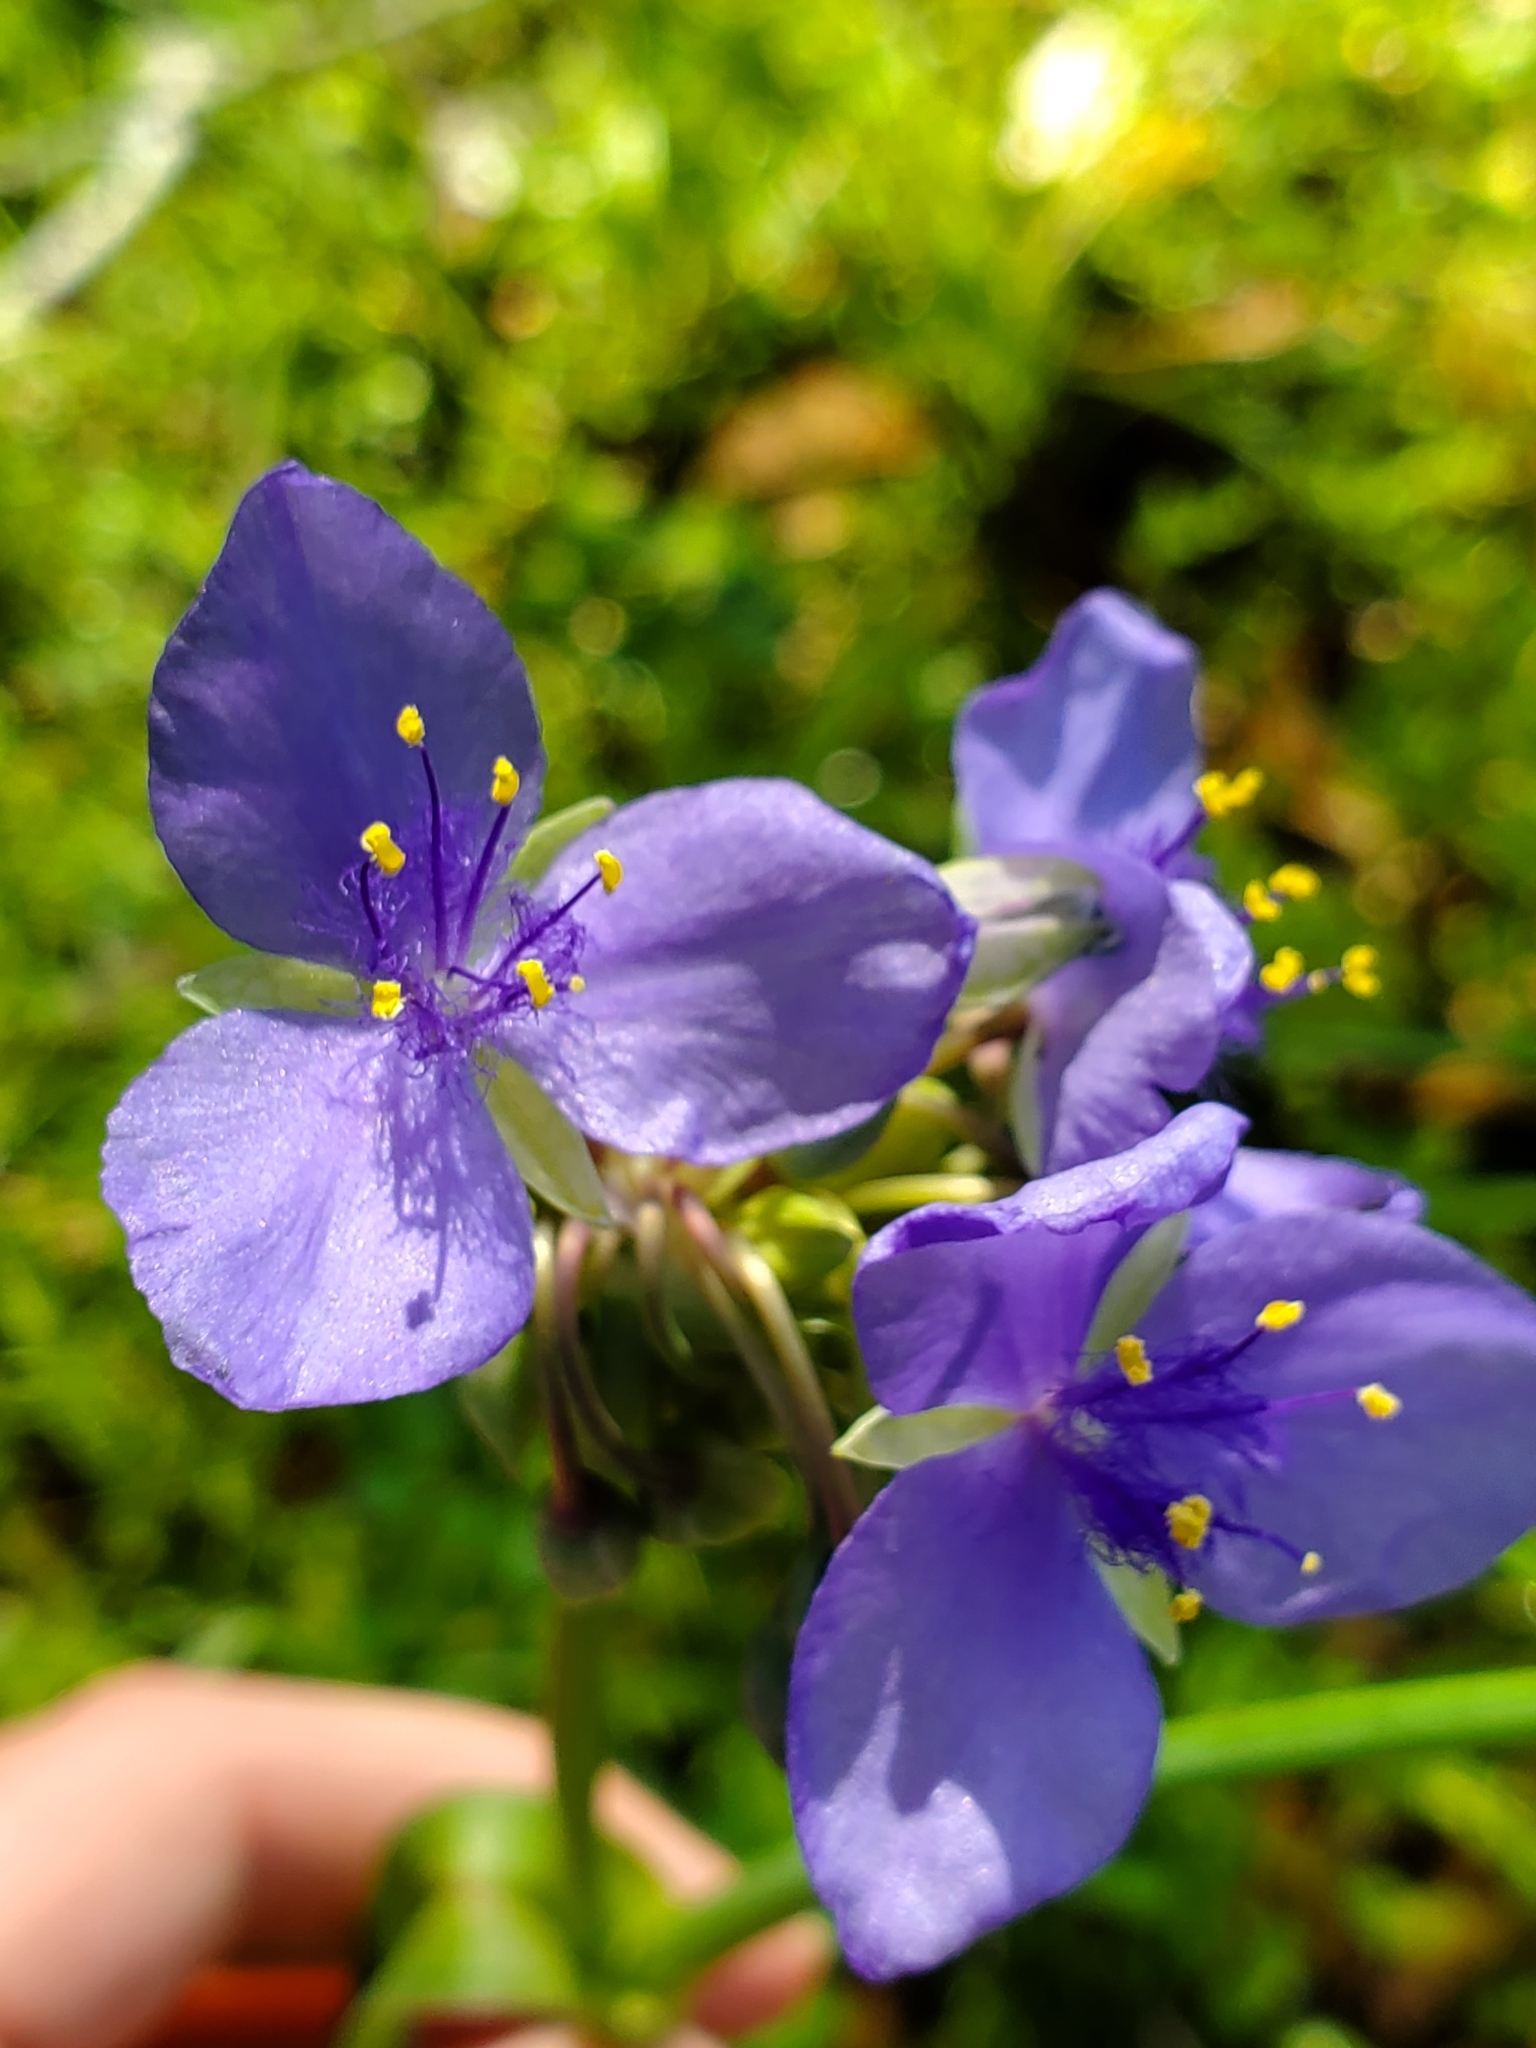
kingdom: Plantae
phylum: Tracheophyta
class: Liliopsida
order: Commelinales
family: Commelinaceae
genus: Tradescantia
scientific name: Tradescantia ohiensis
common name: Ohio spiderwort
